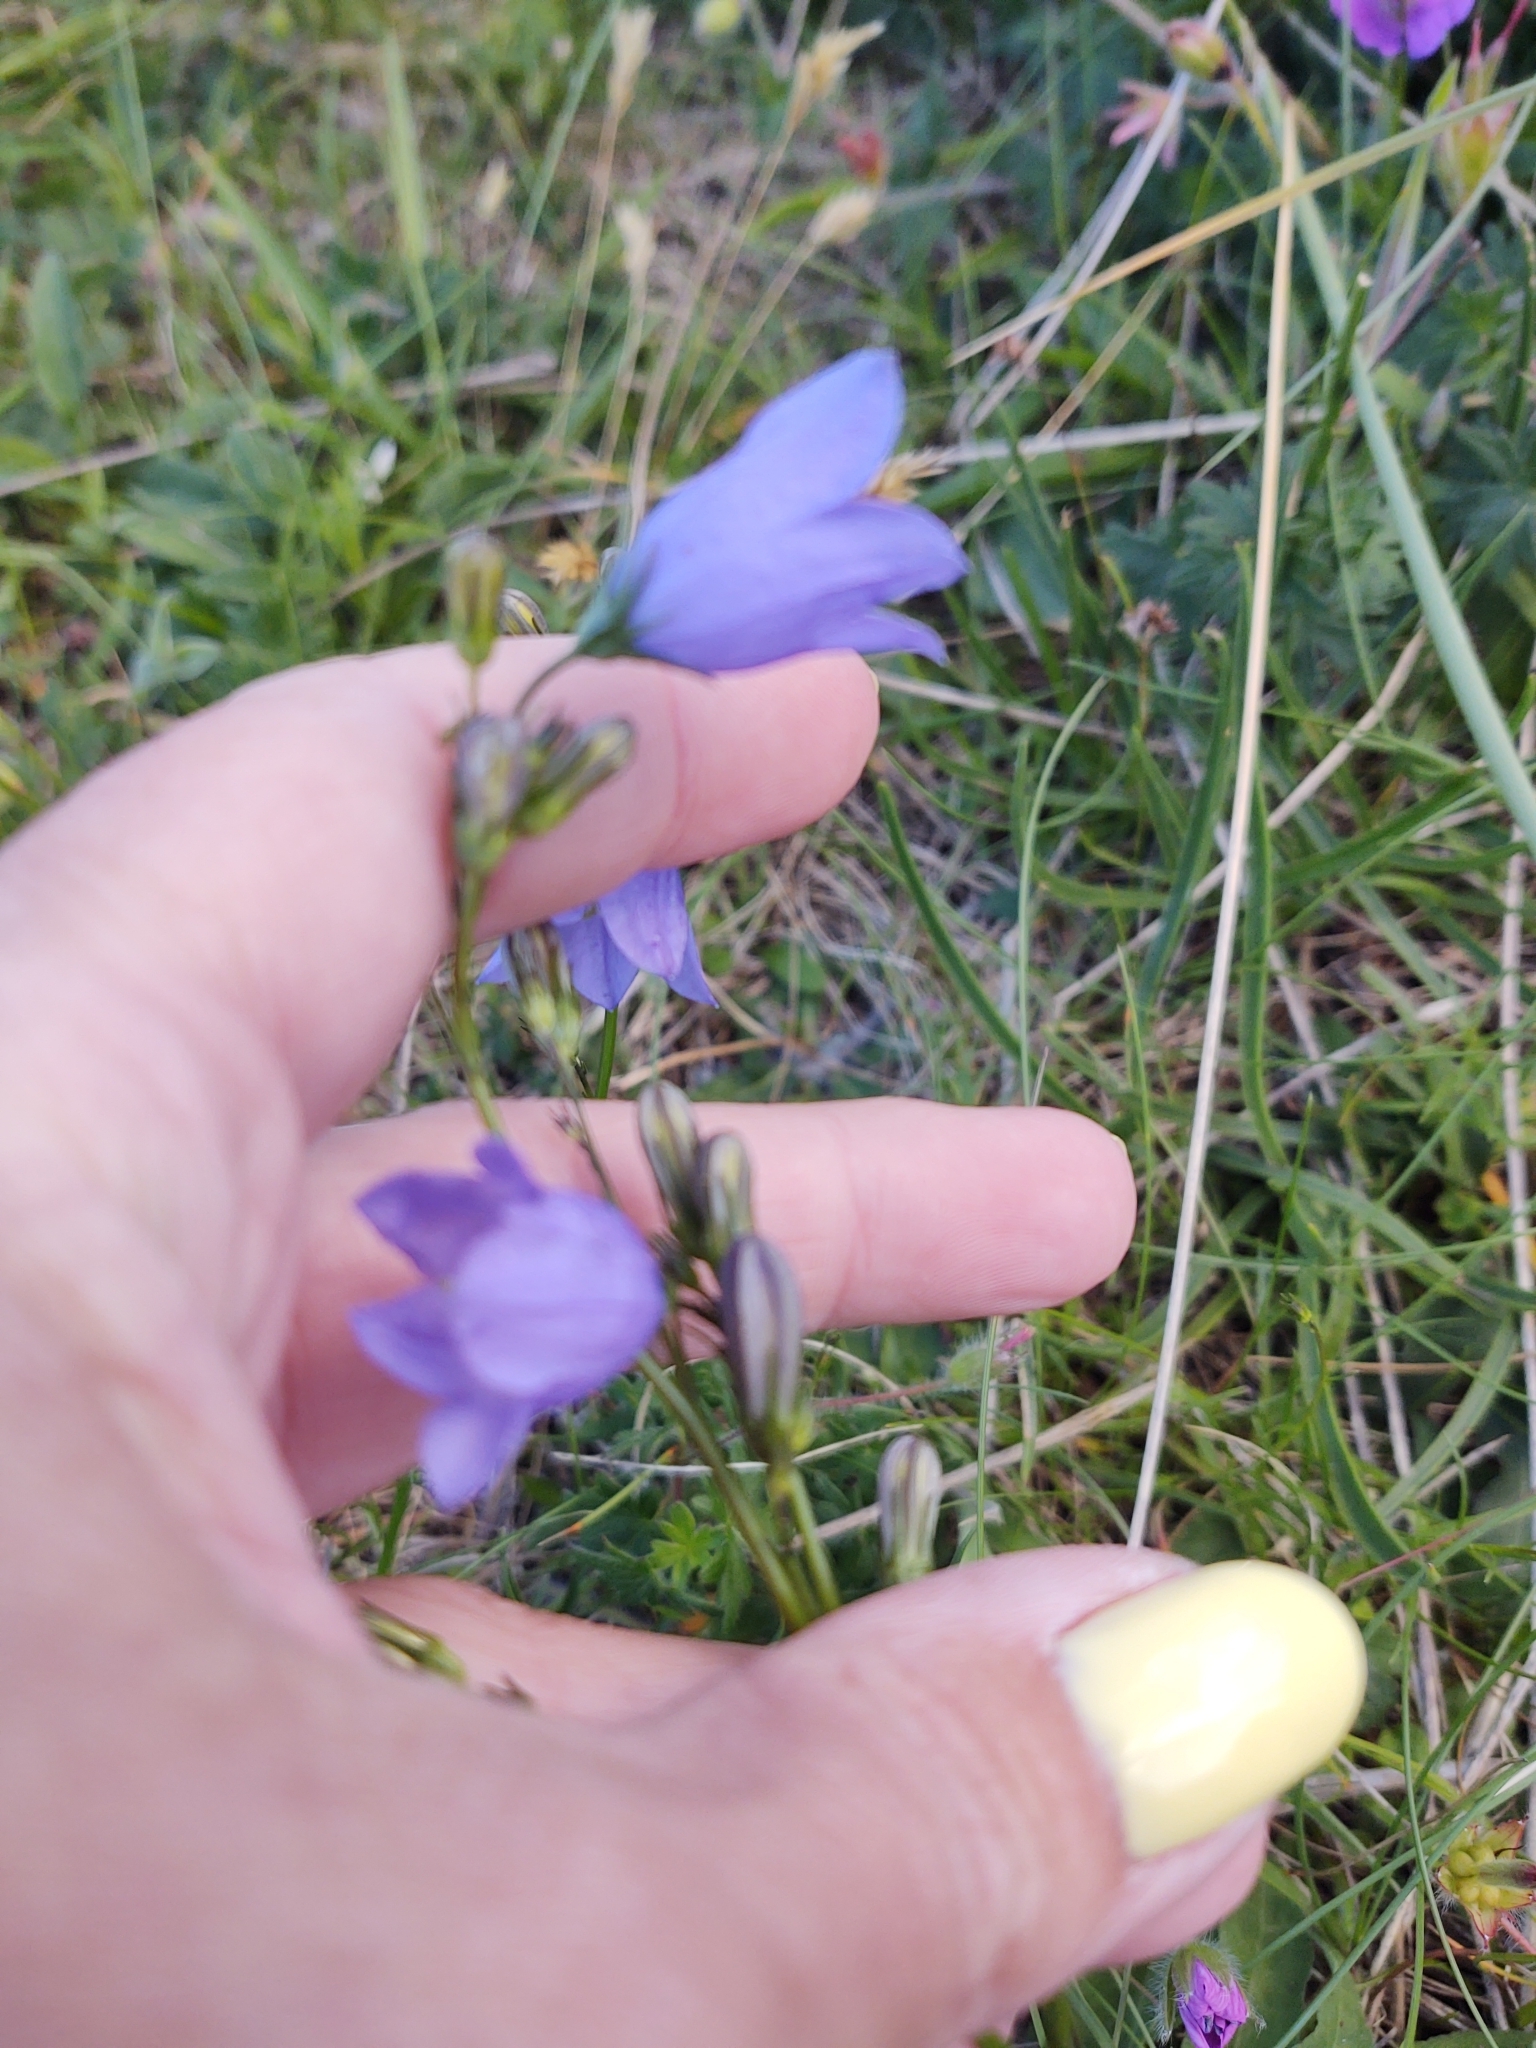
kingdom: Plantae
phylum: Tracheophyta
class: Magnoliopsida
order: Asterales
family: Campanulaceae
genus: Campanula
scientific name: Campanula rotundifolia
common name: Harebell
